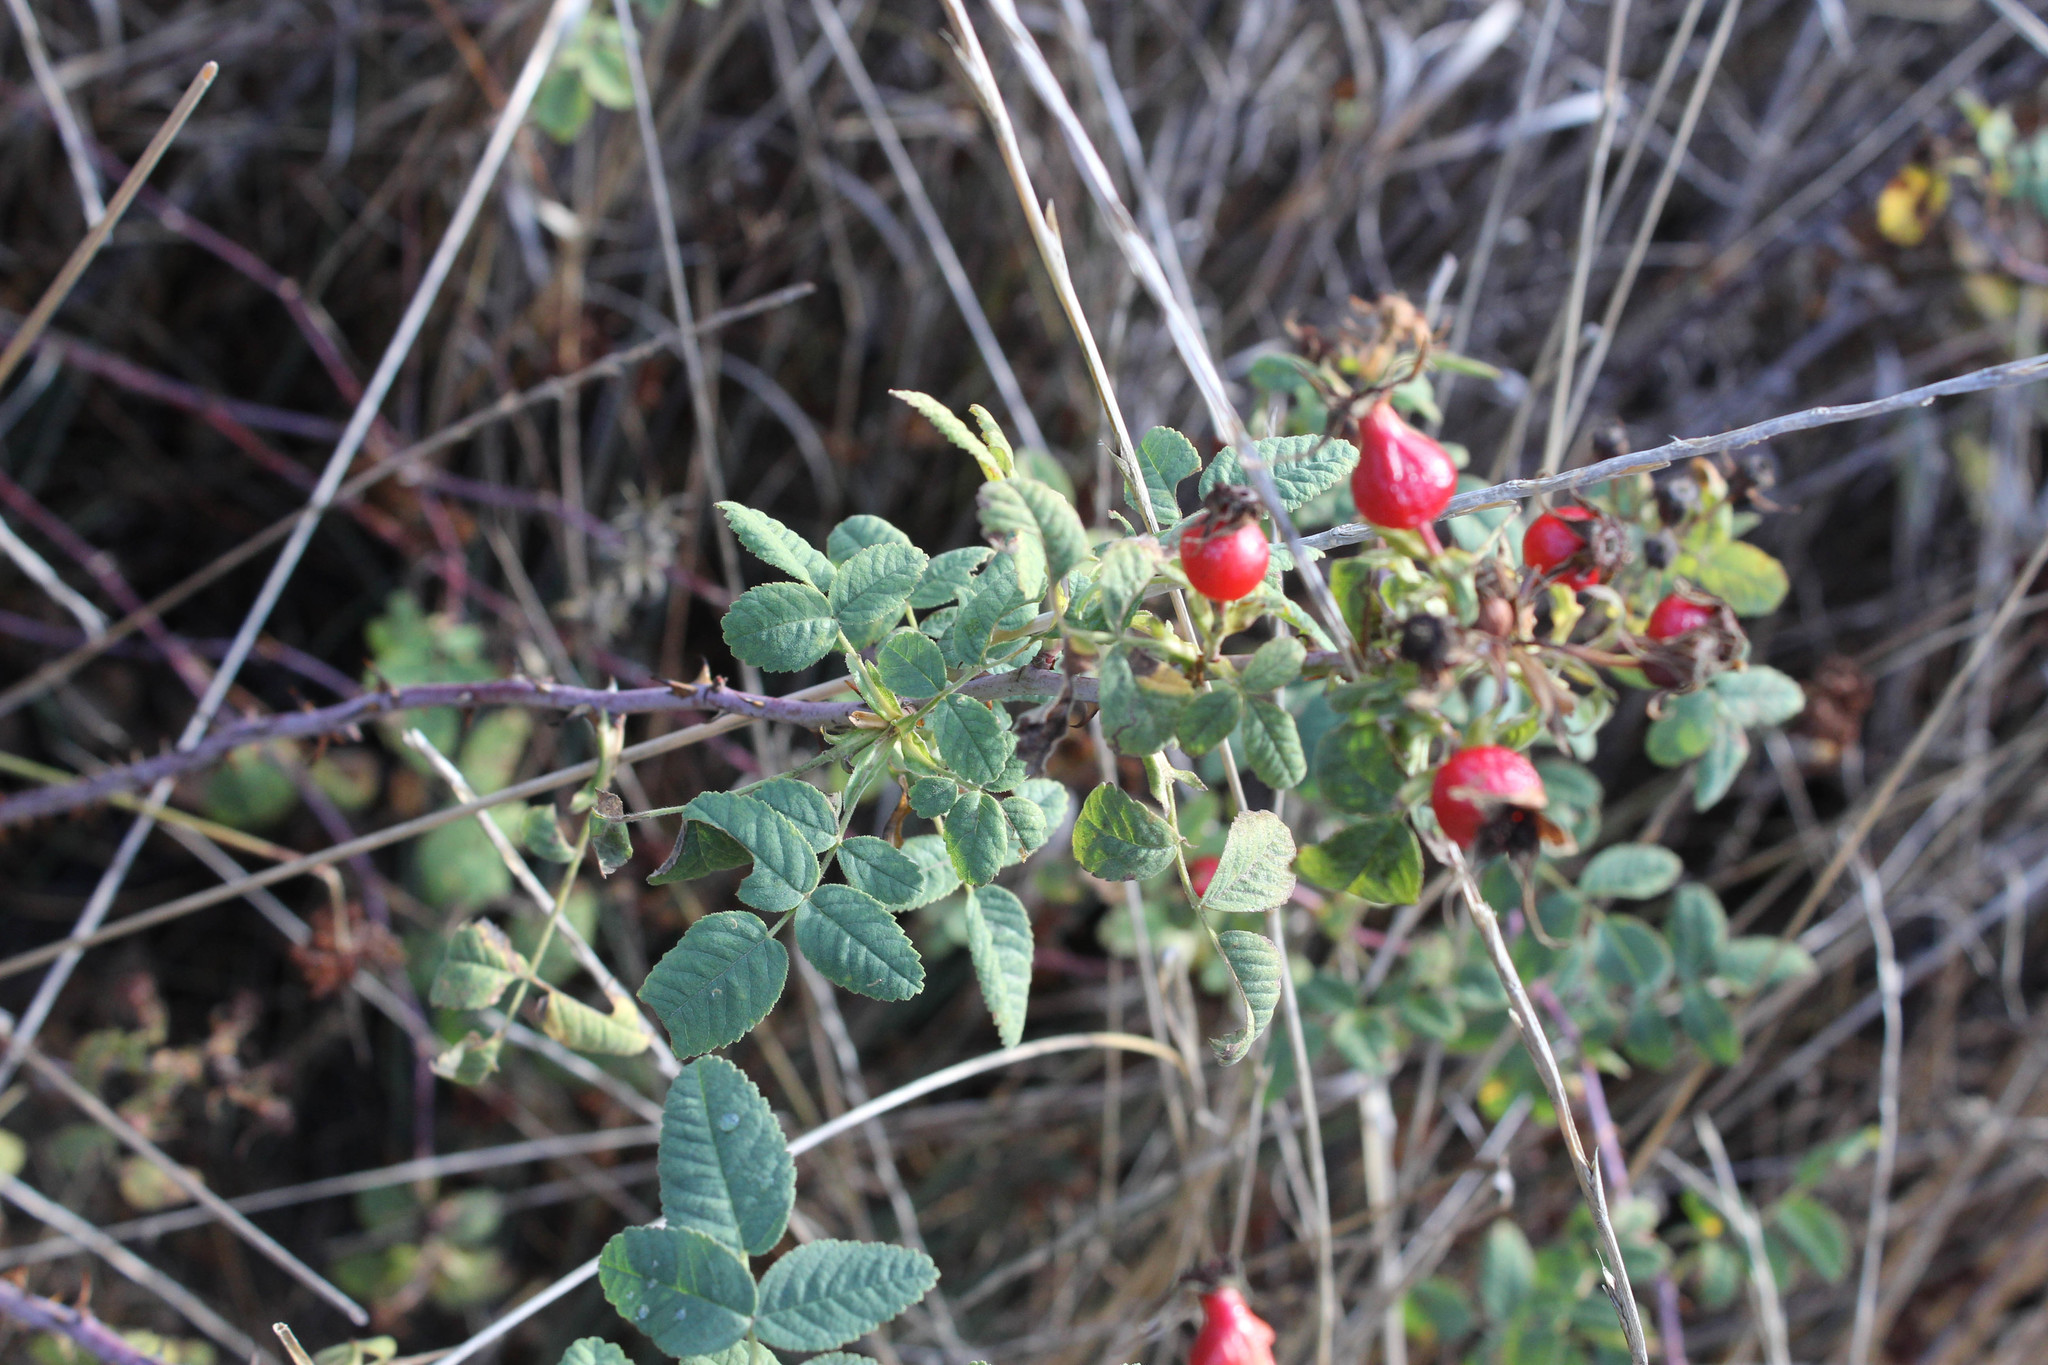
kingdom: Plantae
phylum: Tracheophyta
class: Magnoliopsida
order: Rosales
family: Rosaceae
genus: Rosa
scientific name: Rosa californica
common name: California rose
